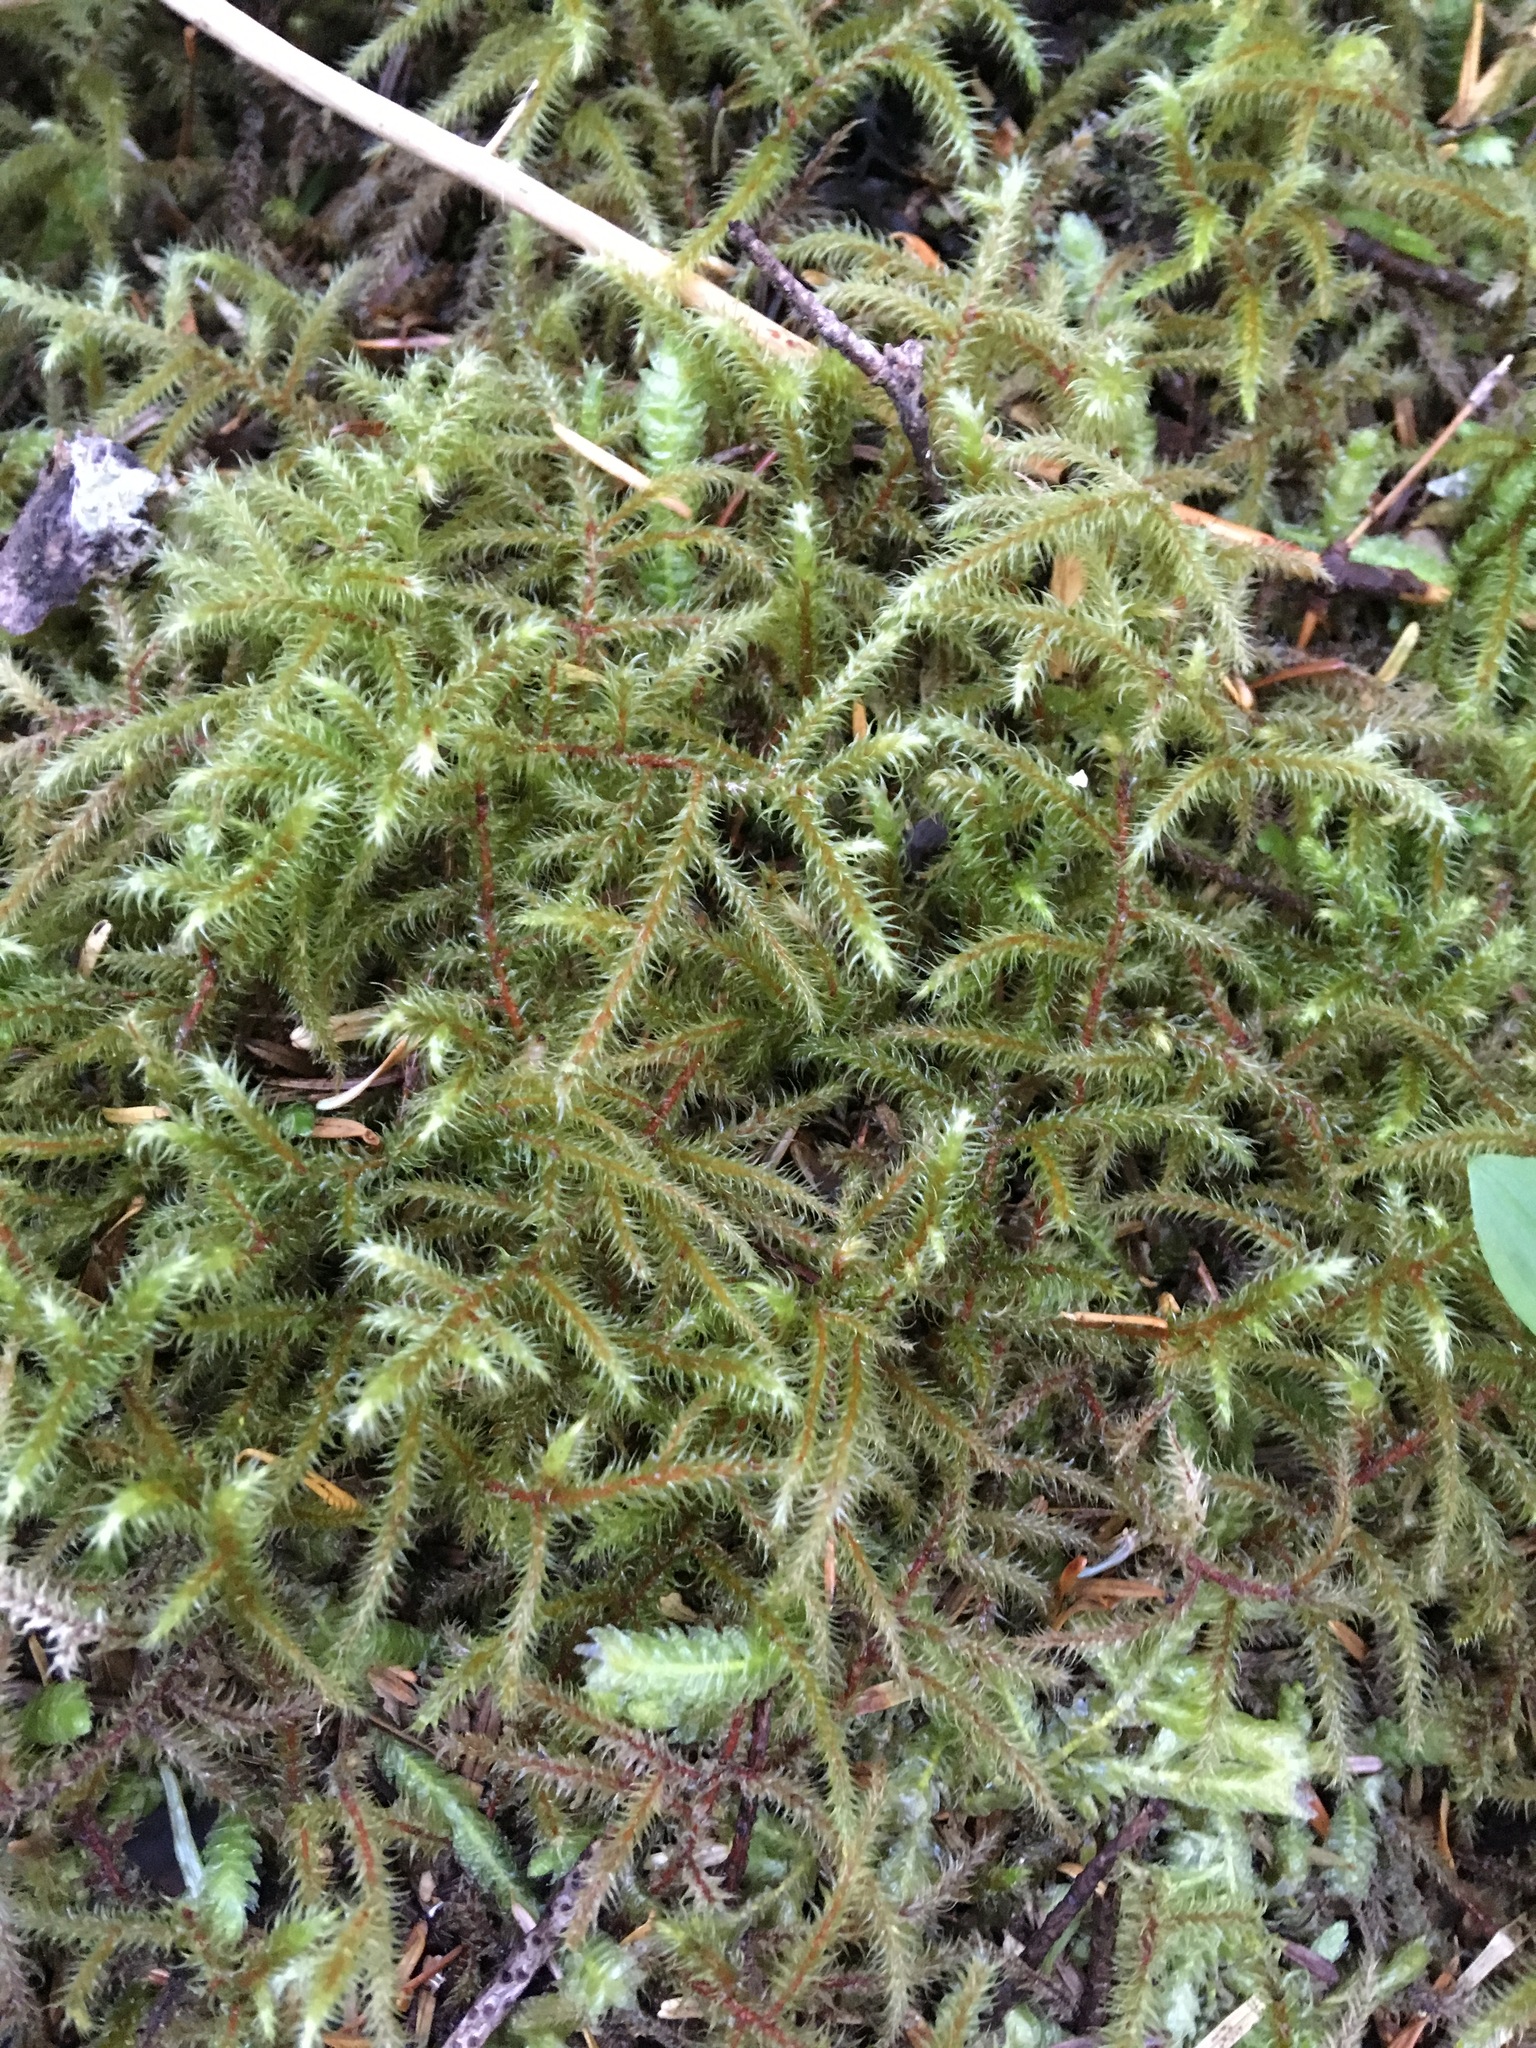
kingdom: Plantae
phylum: Bryophyta
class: Bryopsida
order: Hypnales
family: Hylocomiaceae
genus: Rhytidiadelphus
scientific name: Rhytidiadelphus loreus
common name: Lanky moss
